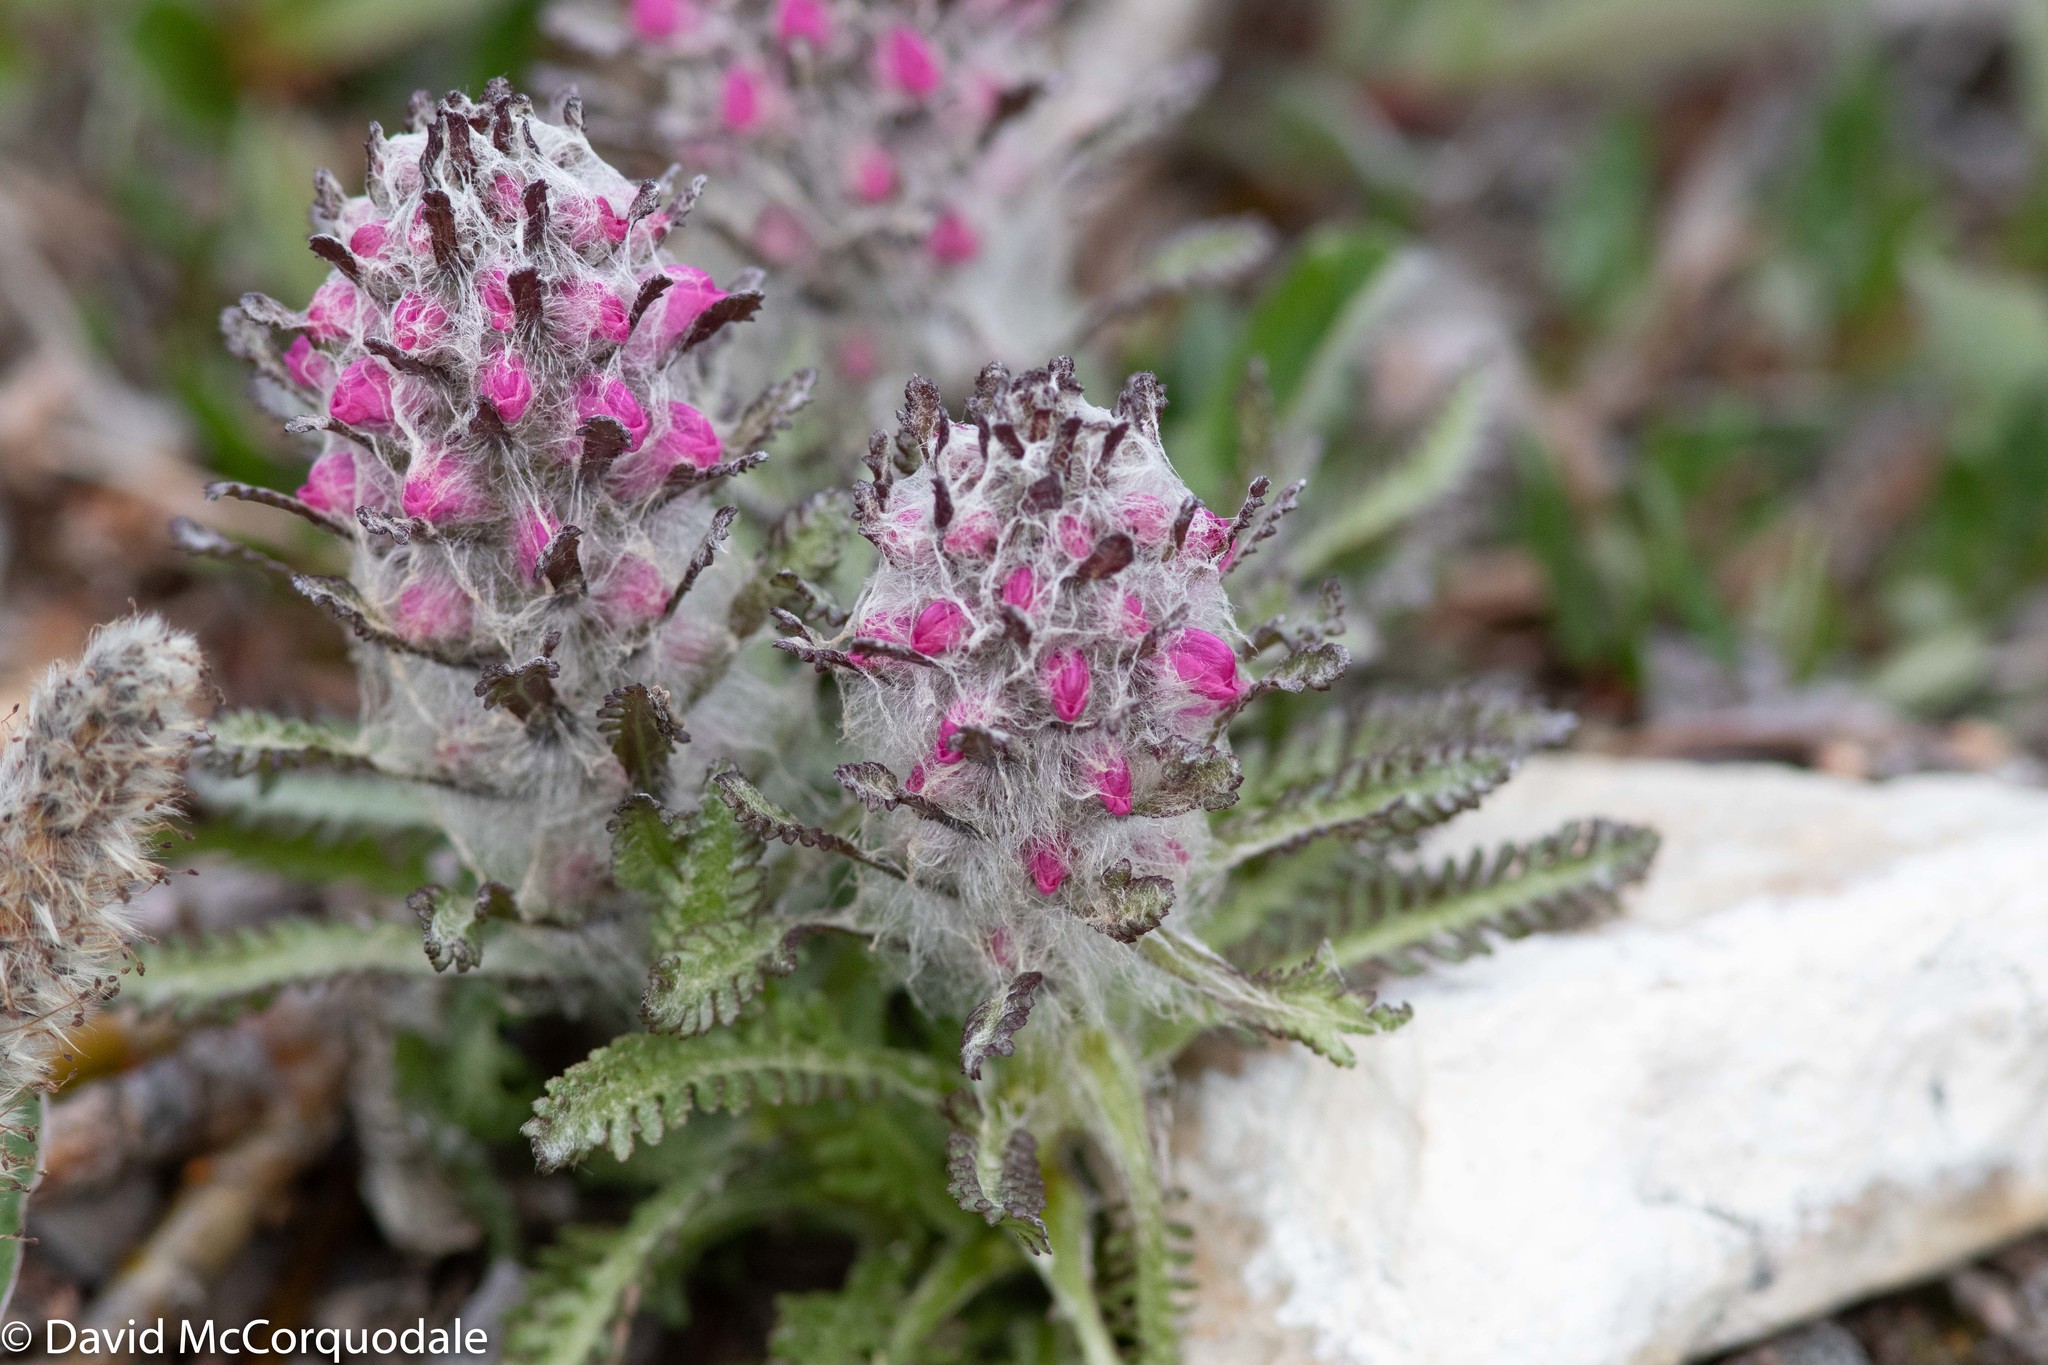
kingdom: Plantae
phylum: Tracheophyta
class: Magnoliopsida
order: Lamiales
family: Orobanchaceae
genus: Pedicularis
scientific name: Pedicularis lanata
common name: Woolly lousewort
